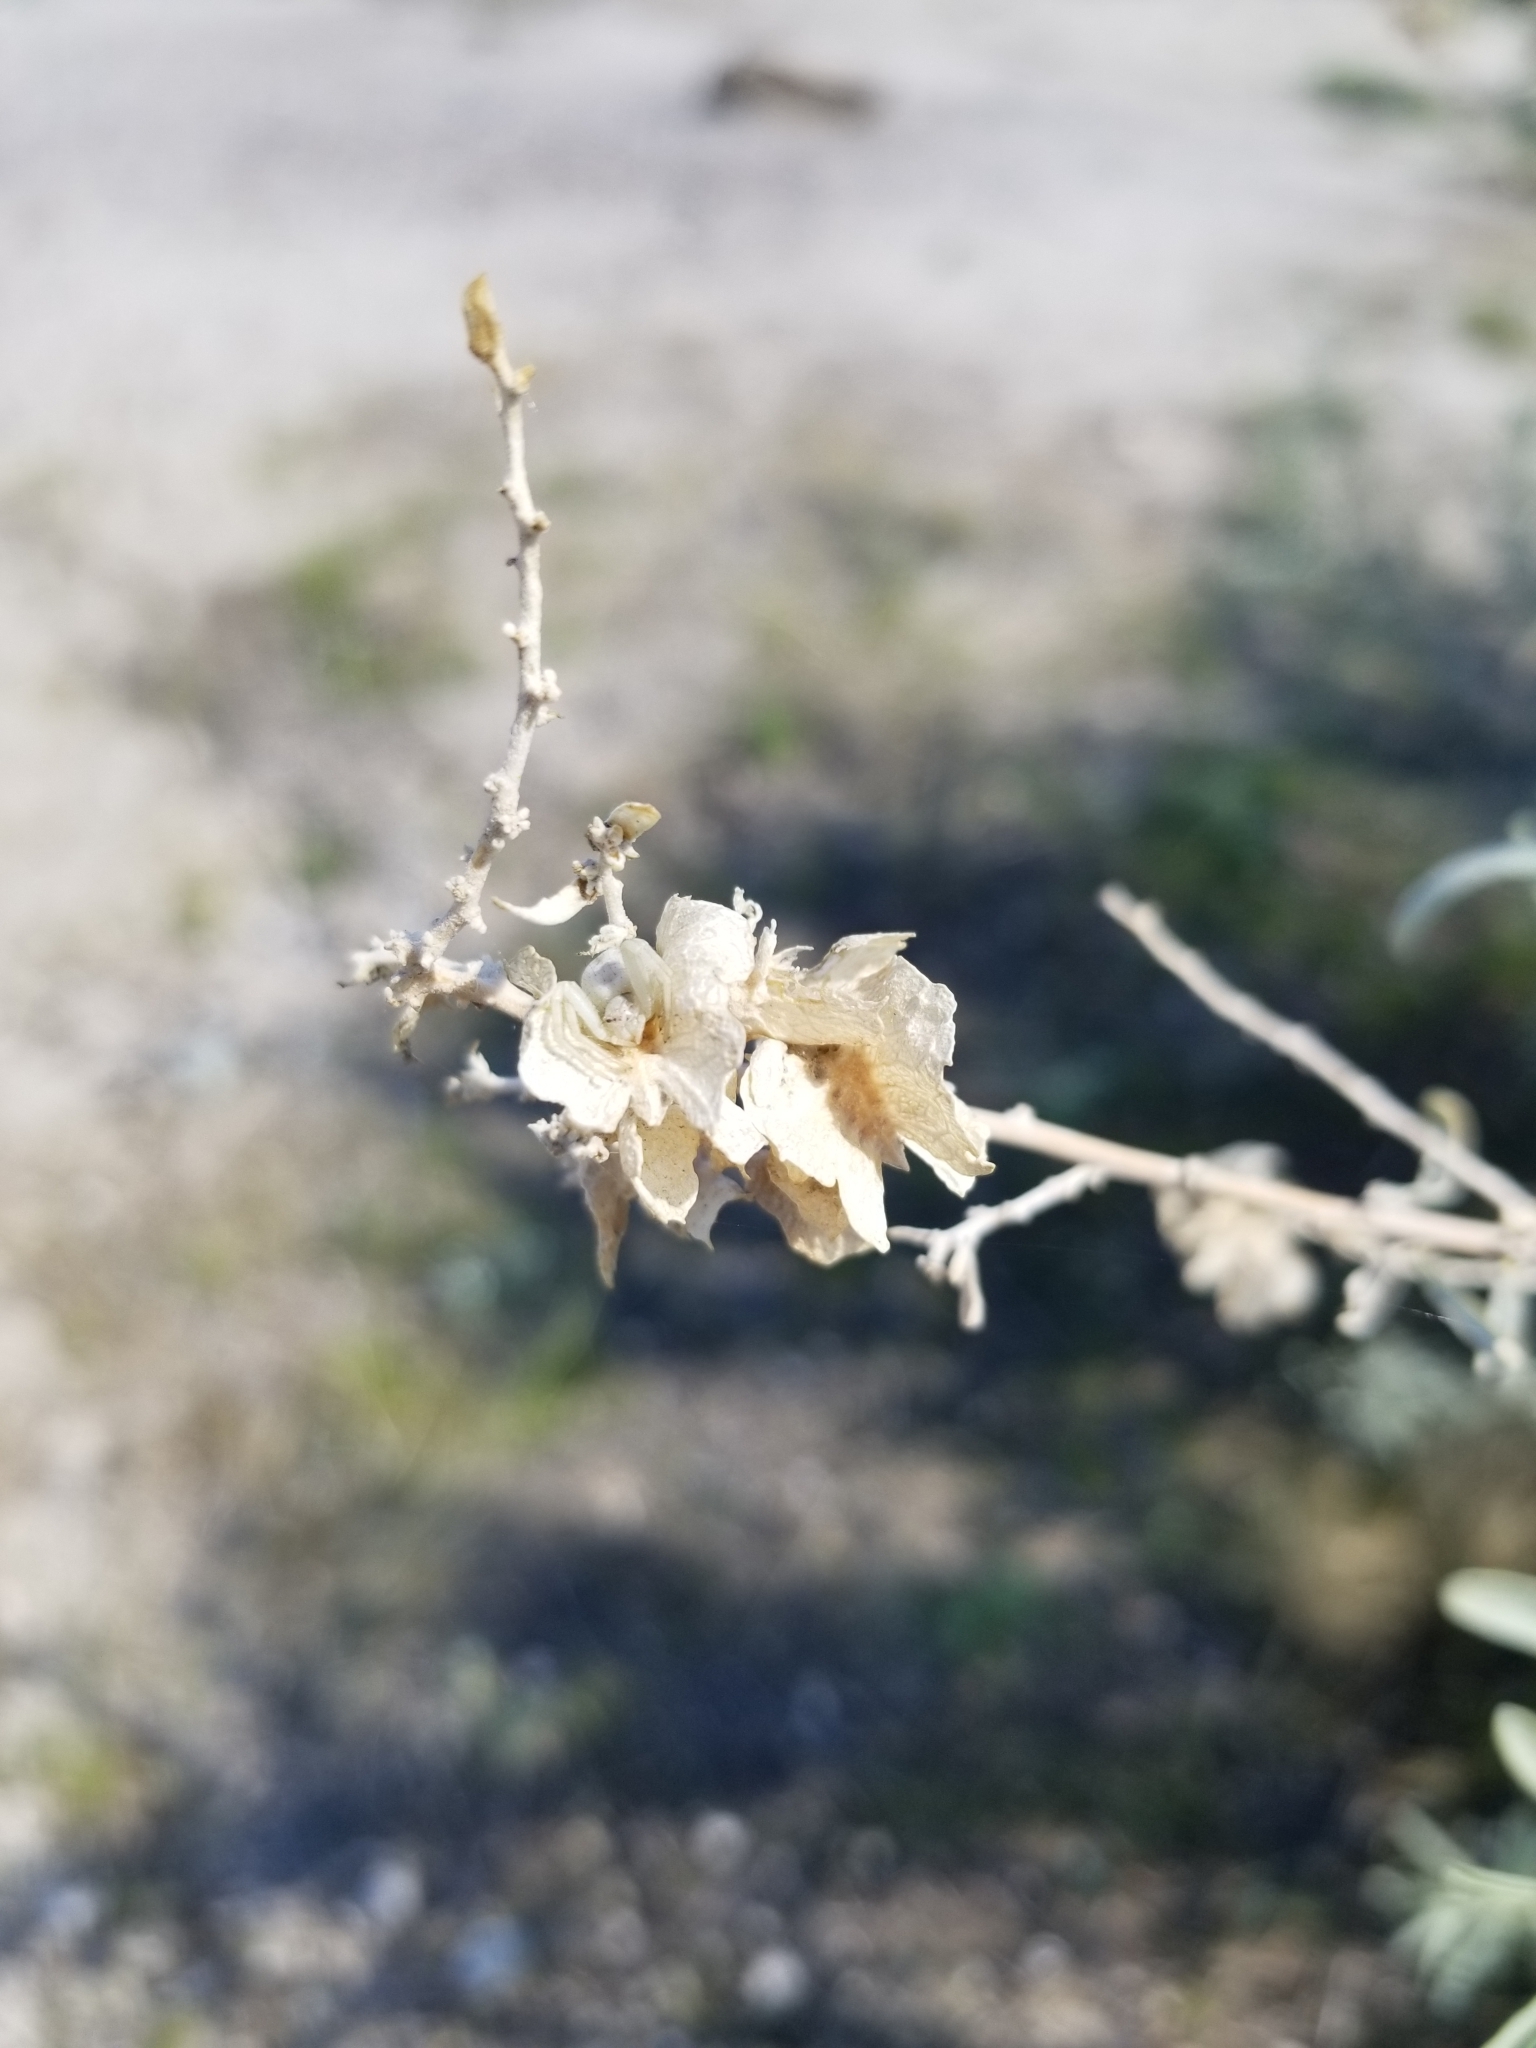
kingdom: Plantae
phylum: Tracheophyta
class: Magnoliopsida
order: Caryophyllales
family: Amaranthaceae
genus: Atriplex
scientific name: Atriplex canescens
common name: Four-wing saltbush
